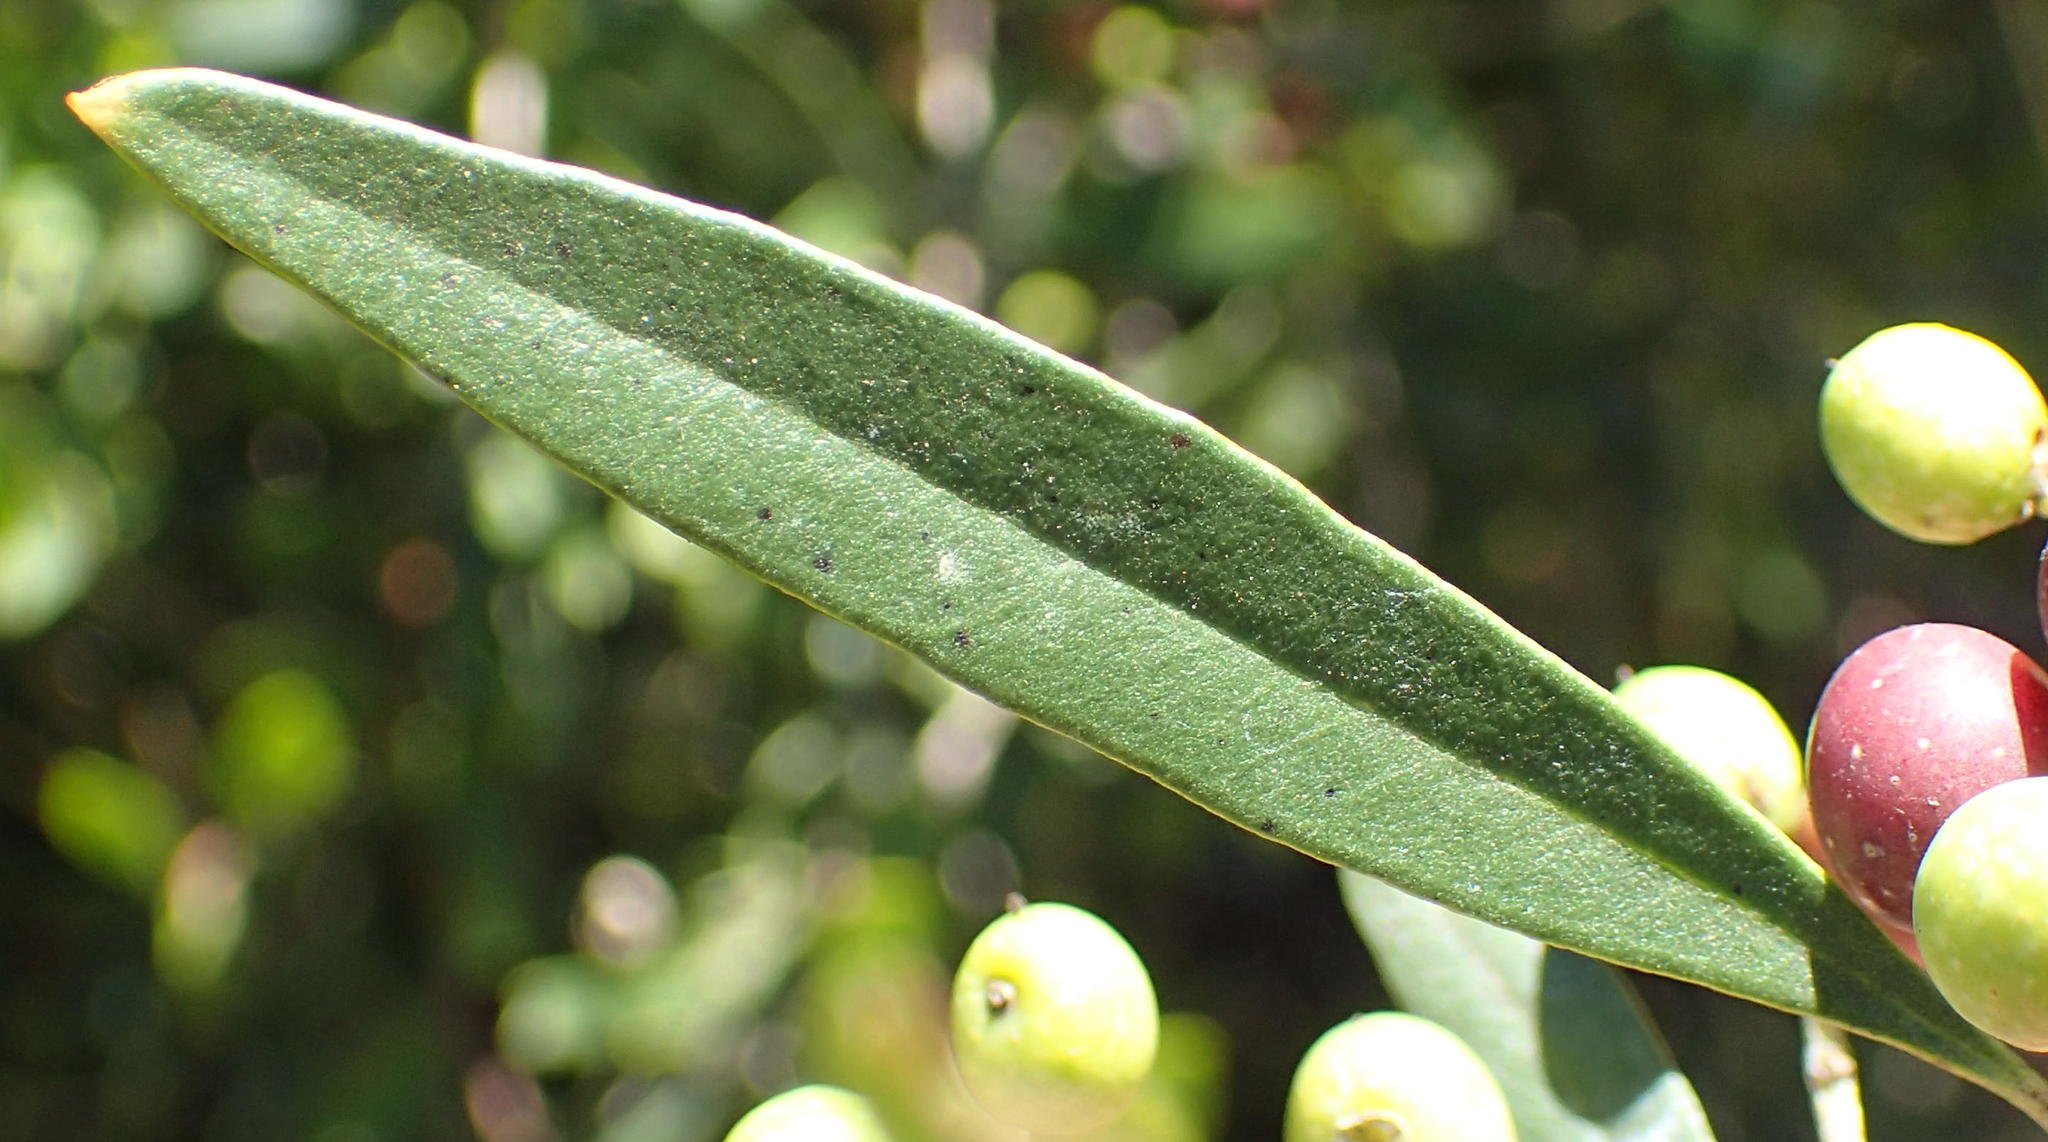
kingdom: Plantae
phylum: Tracheophyta
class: Magnoliopsida
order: Lamiales
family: Oleaceae
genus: Olea
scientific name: Olea europaea
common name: Olive
